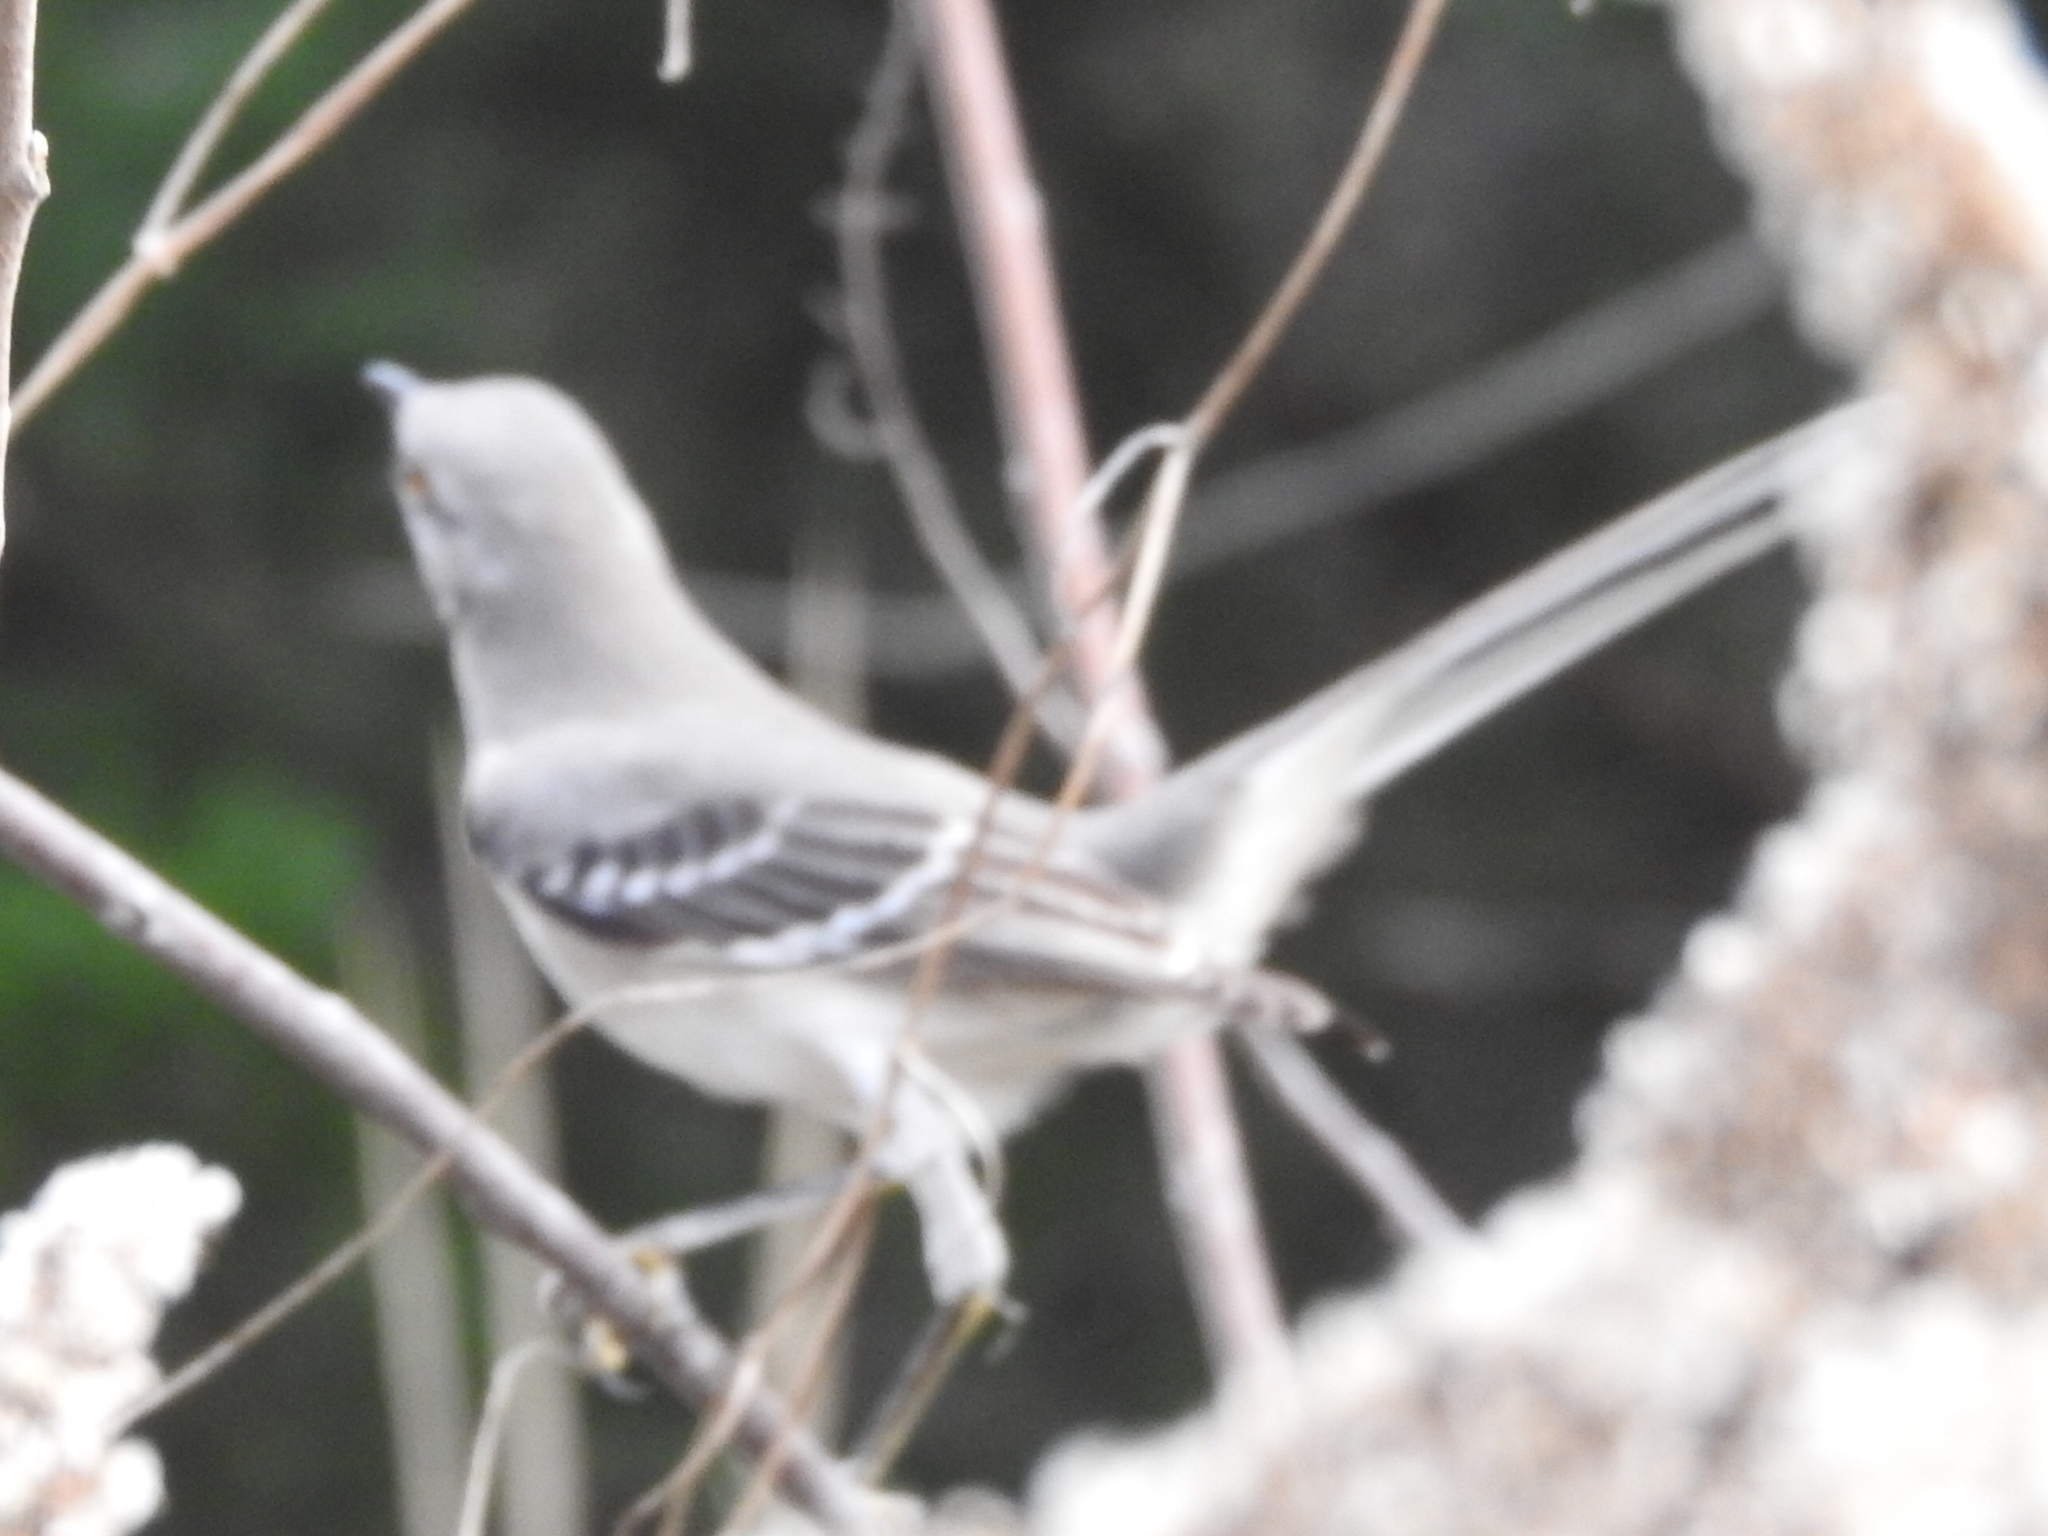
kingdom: Animalia
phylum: Chordata
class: Aves
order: Passeriformes
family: Mimidae
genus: Mimus
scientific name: Mimus polyglottos
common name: Northern mockingbird
